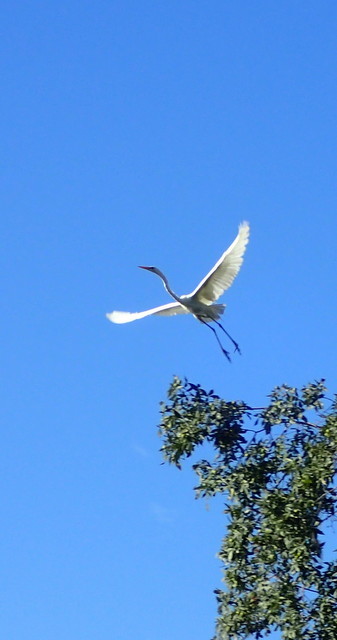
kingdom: Animalia
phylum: Chordata
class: Aves
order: Pelecaniformes
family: Ardeidae
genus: Ardea
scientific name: Ardea alba
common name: Great egret
